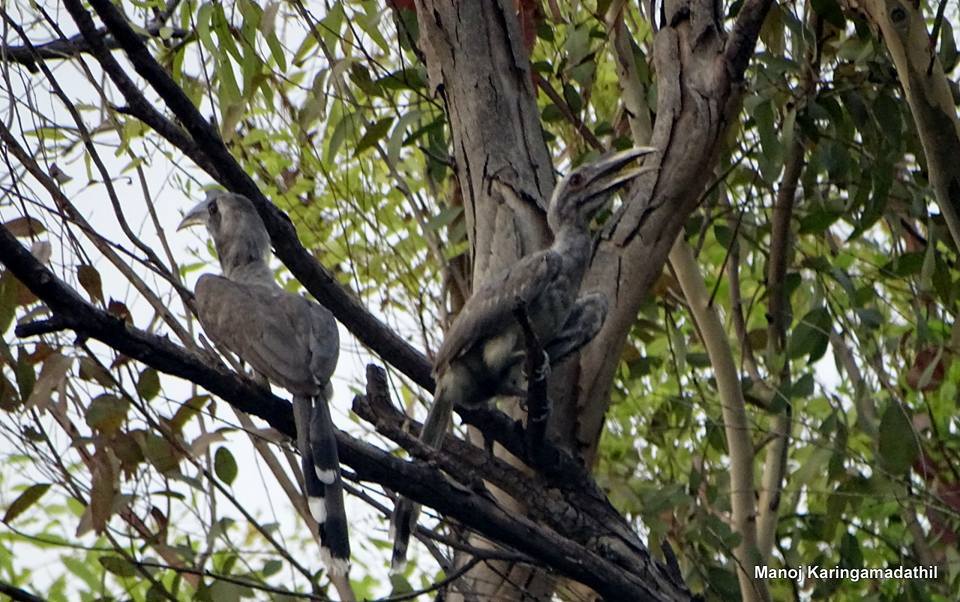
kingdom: Animalia
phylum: Chordata
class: Aves
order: Bucerotiformes
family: Bucerotidae
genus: Ocyceros
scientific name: Ocyceros birostris
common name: Indian grey hornbill
